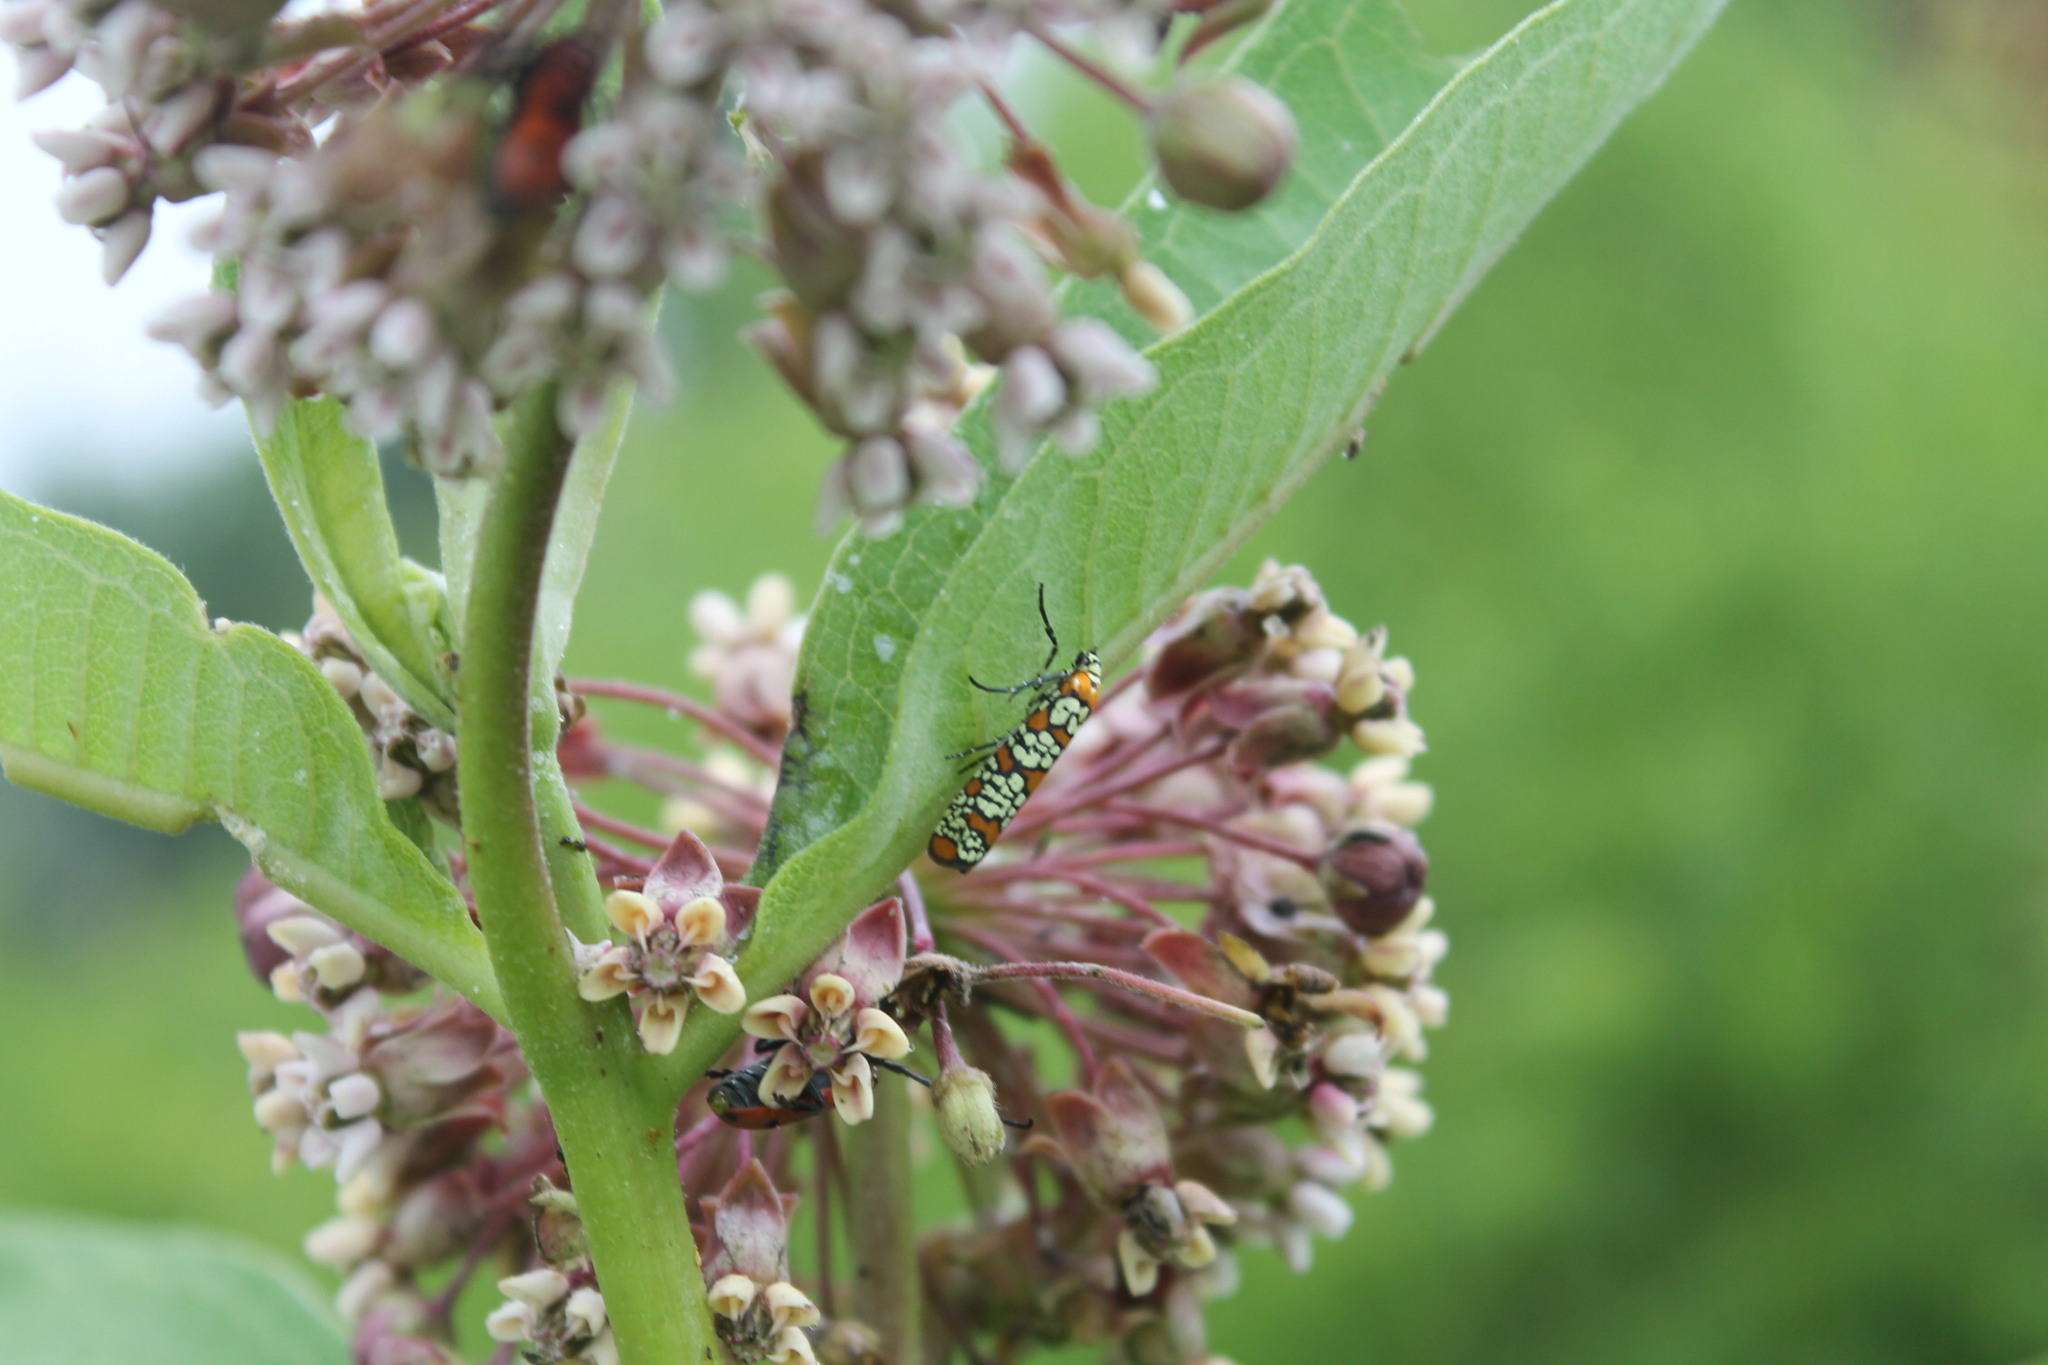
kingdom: Animalia
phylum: Arthropoda
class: Insecta
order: Lepidoptera
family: Attevidae
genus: Atteva
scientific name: Atteva punctella
